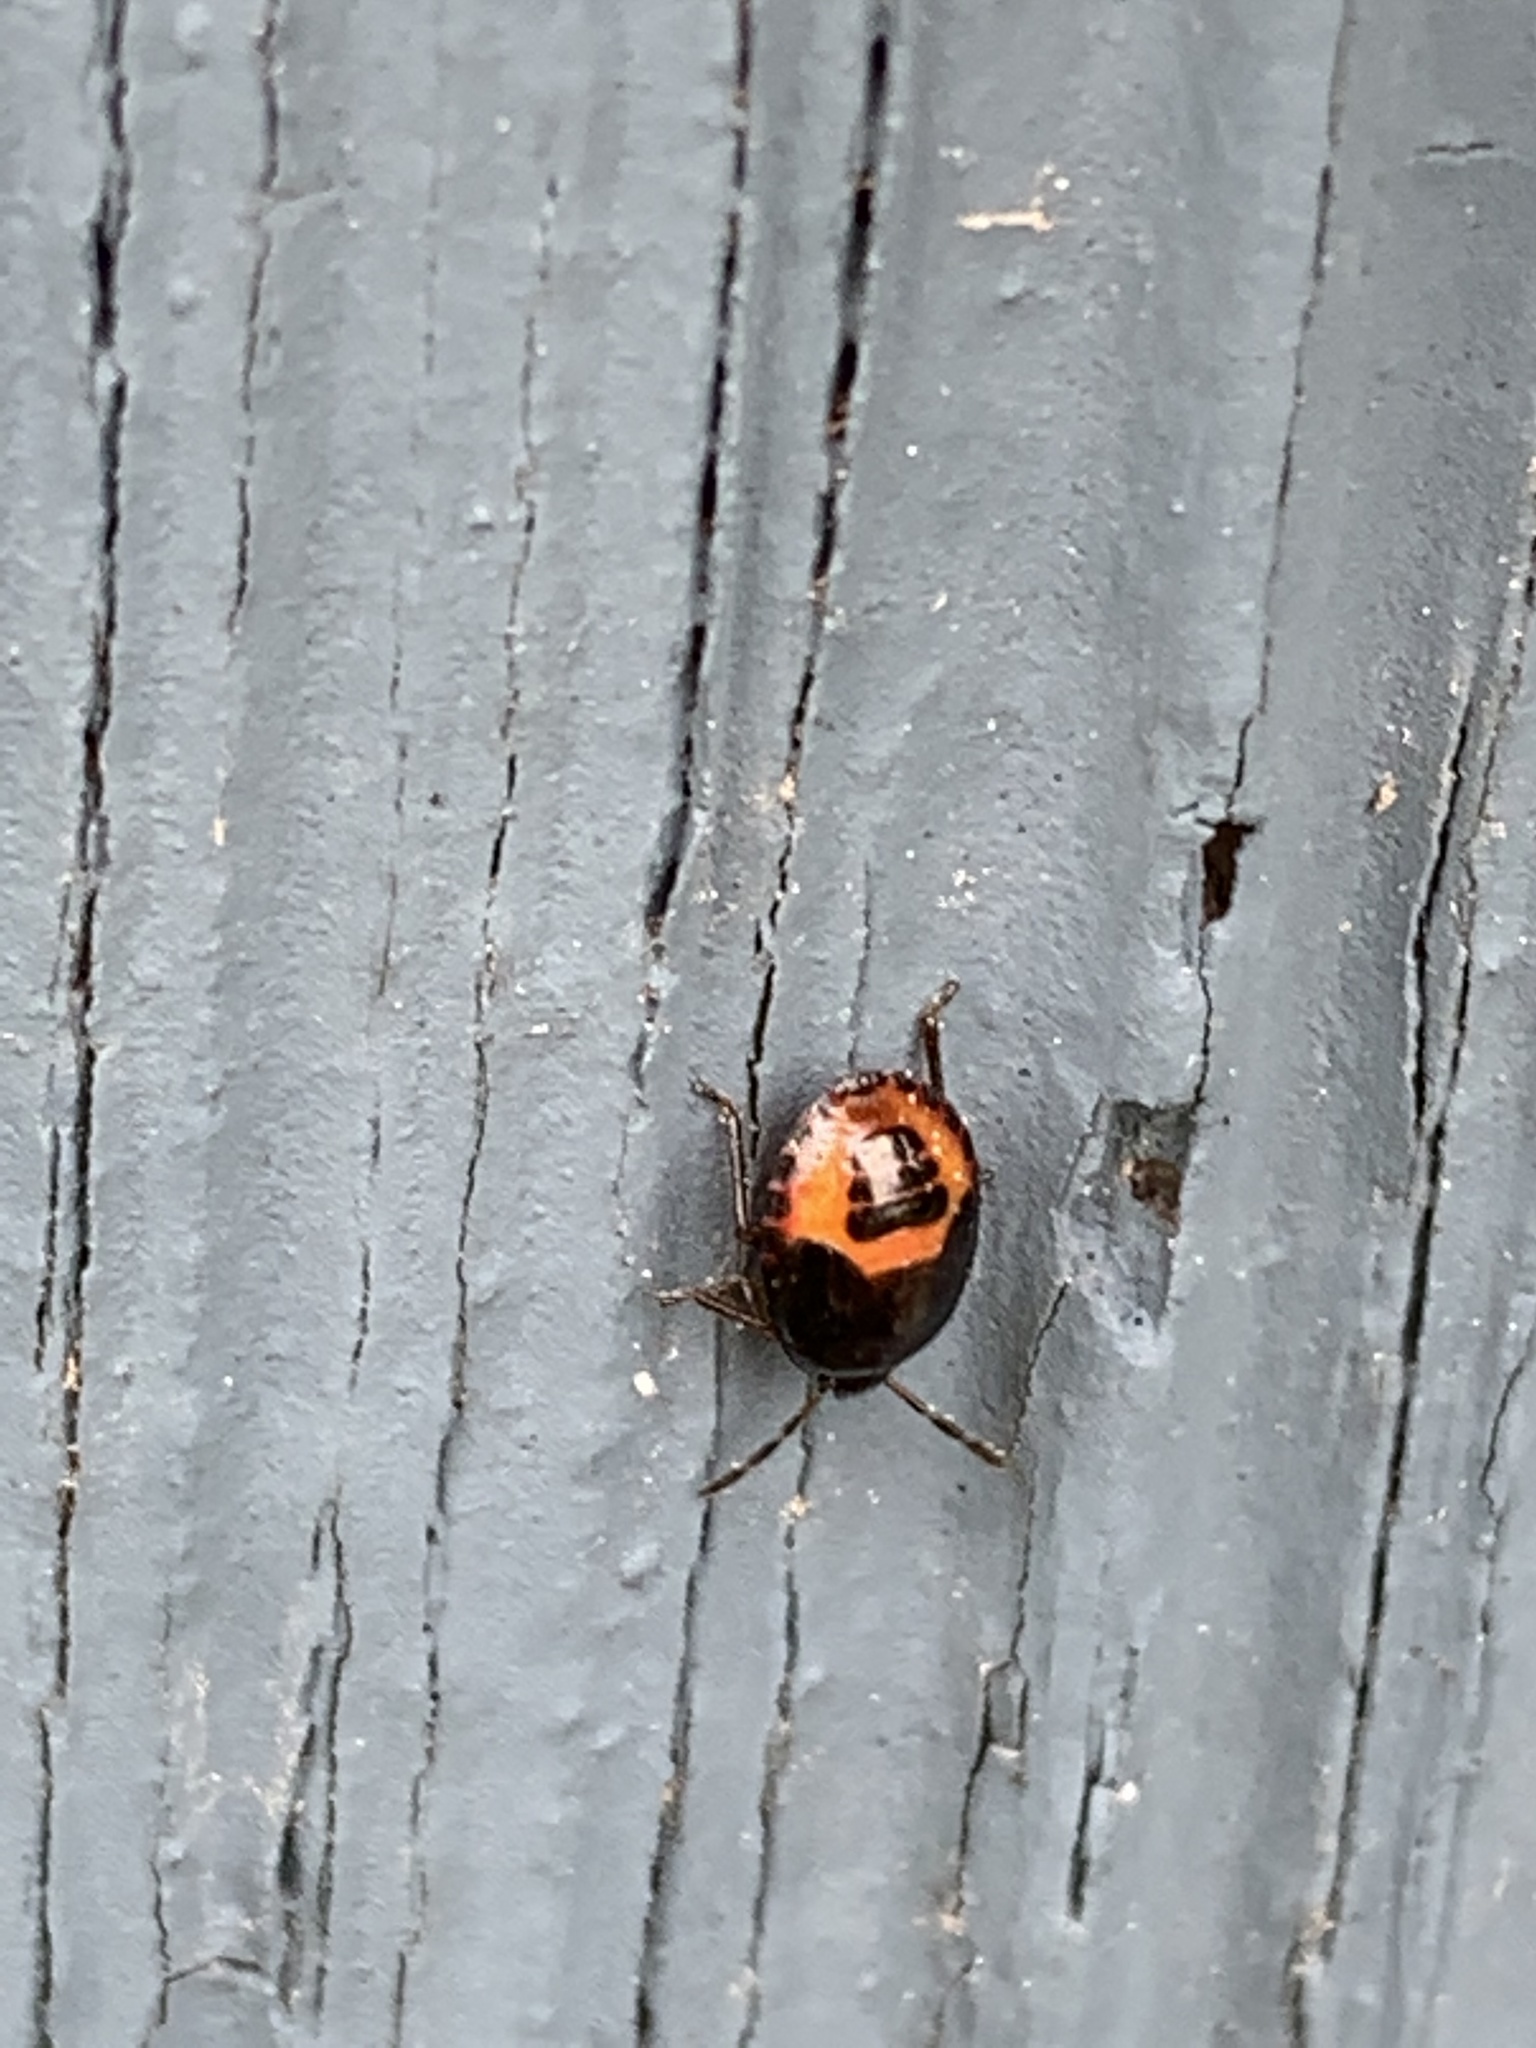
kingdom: Animalia
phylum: Arthropoda
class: Insecta
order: Hemiptera
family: Cydnidae
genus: Sehirus
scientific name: Sehirus cinctus
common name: White-margined burrower bug
